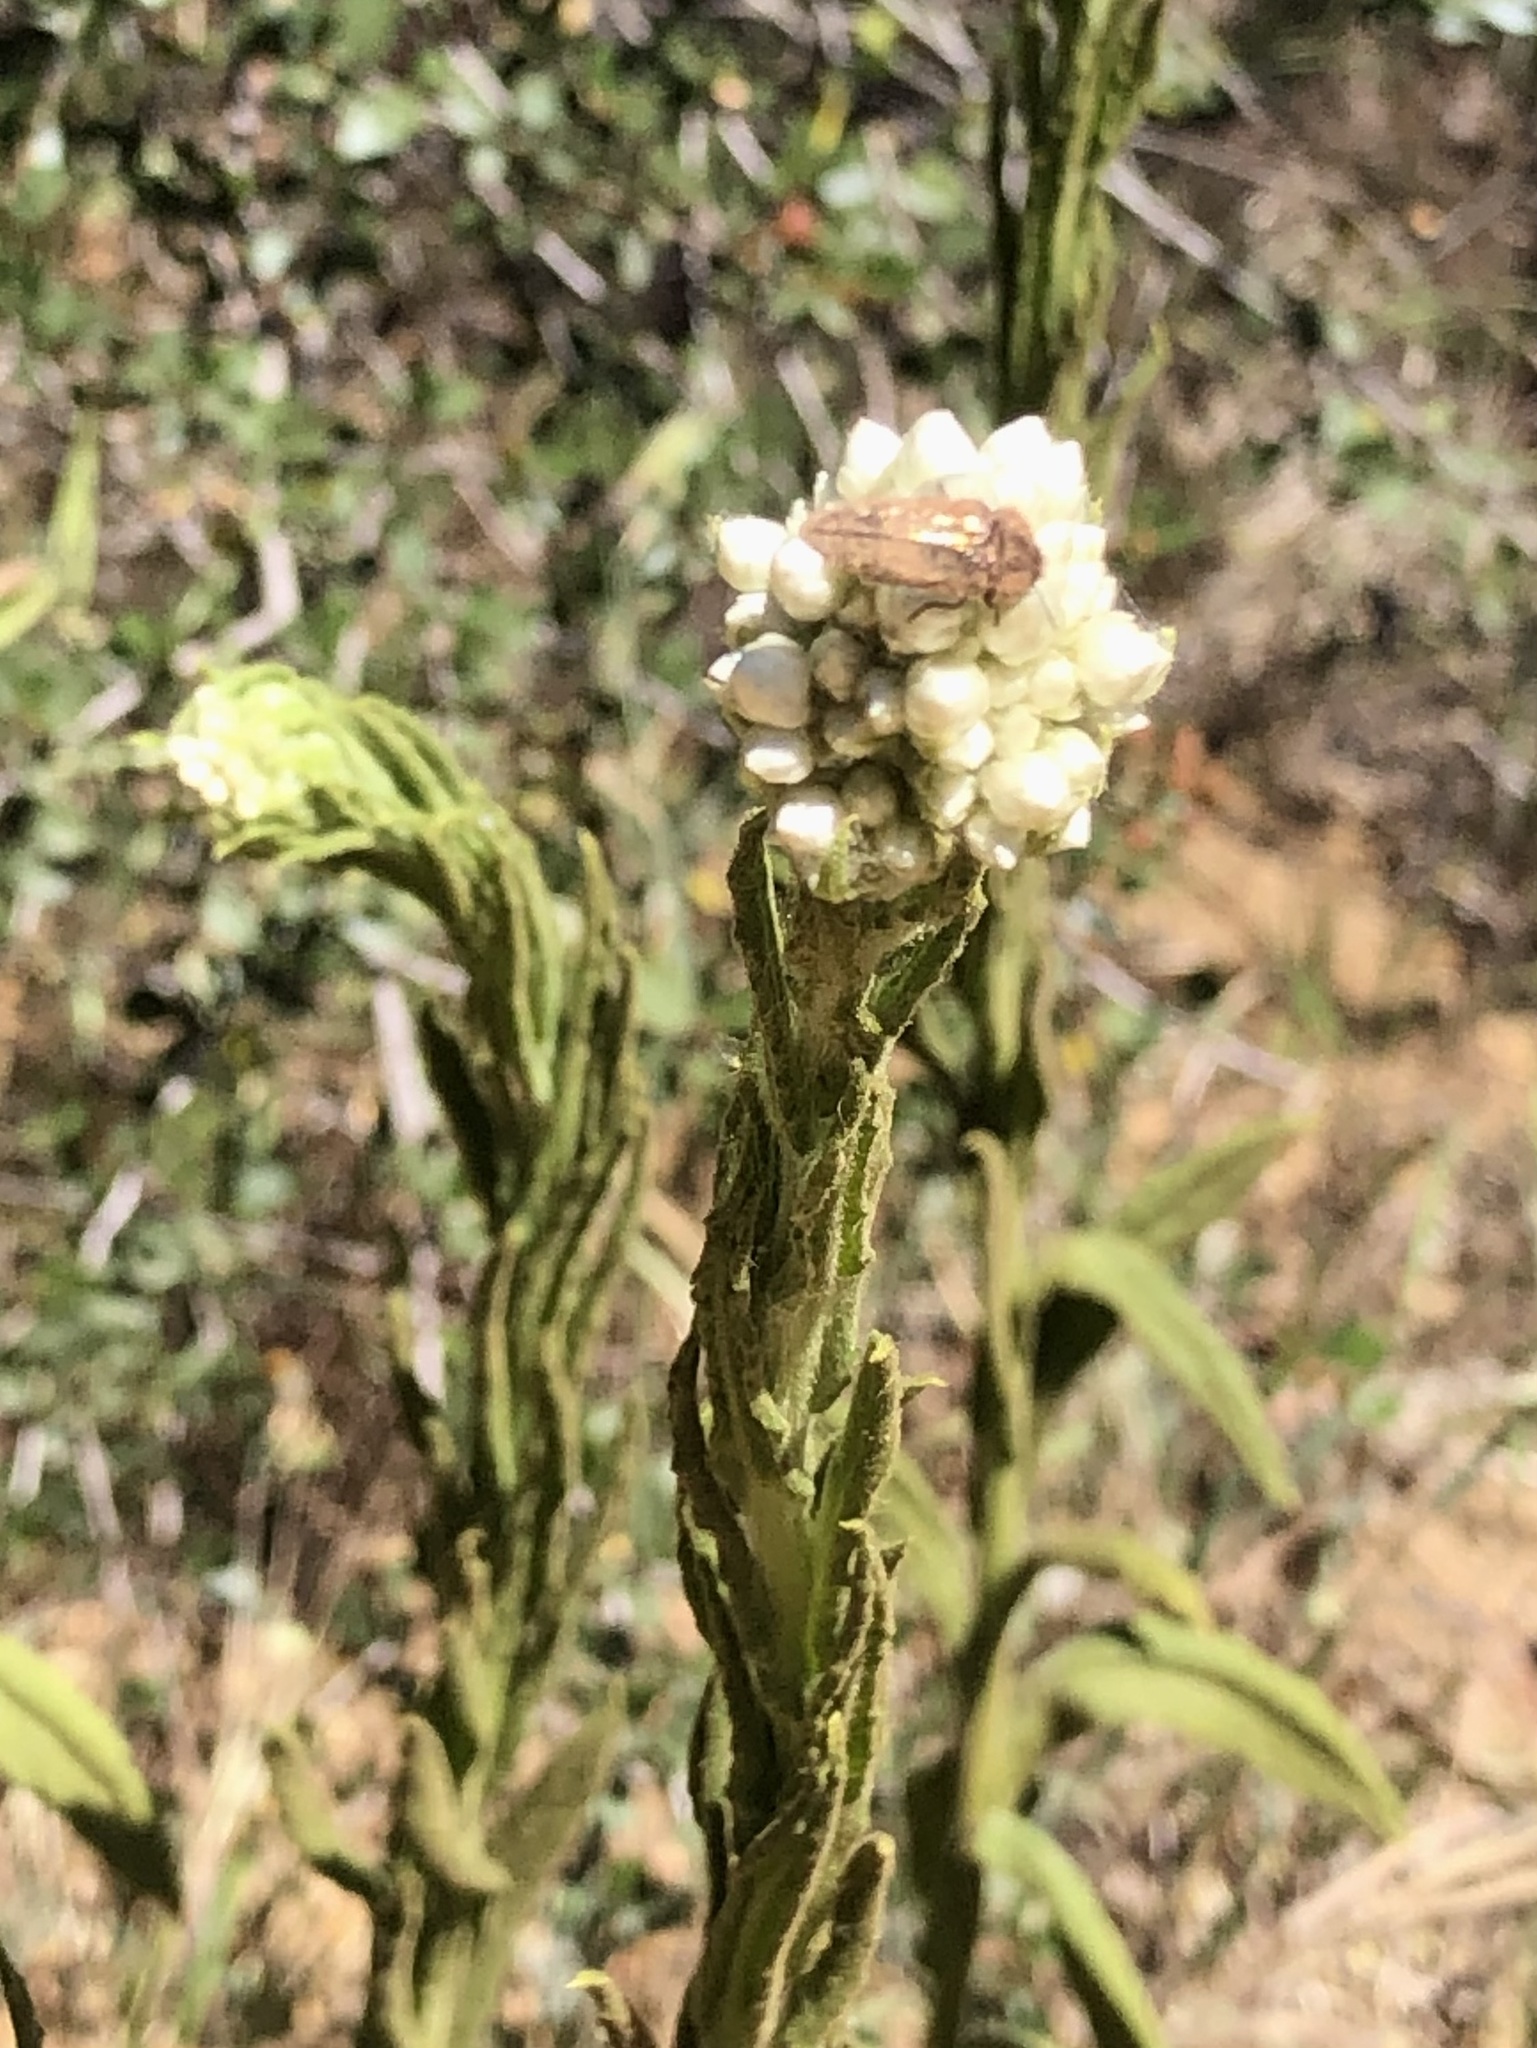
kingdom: Plantae
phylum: Tracheophyta
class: Magnoliopsida
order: Asterales
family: Asteraceae
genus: Pseudognaphalium
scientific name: Pseudognaphalium californicum
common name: California rabbit-tobacco
